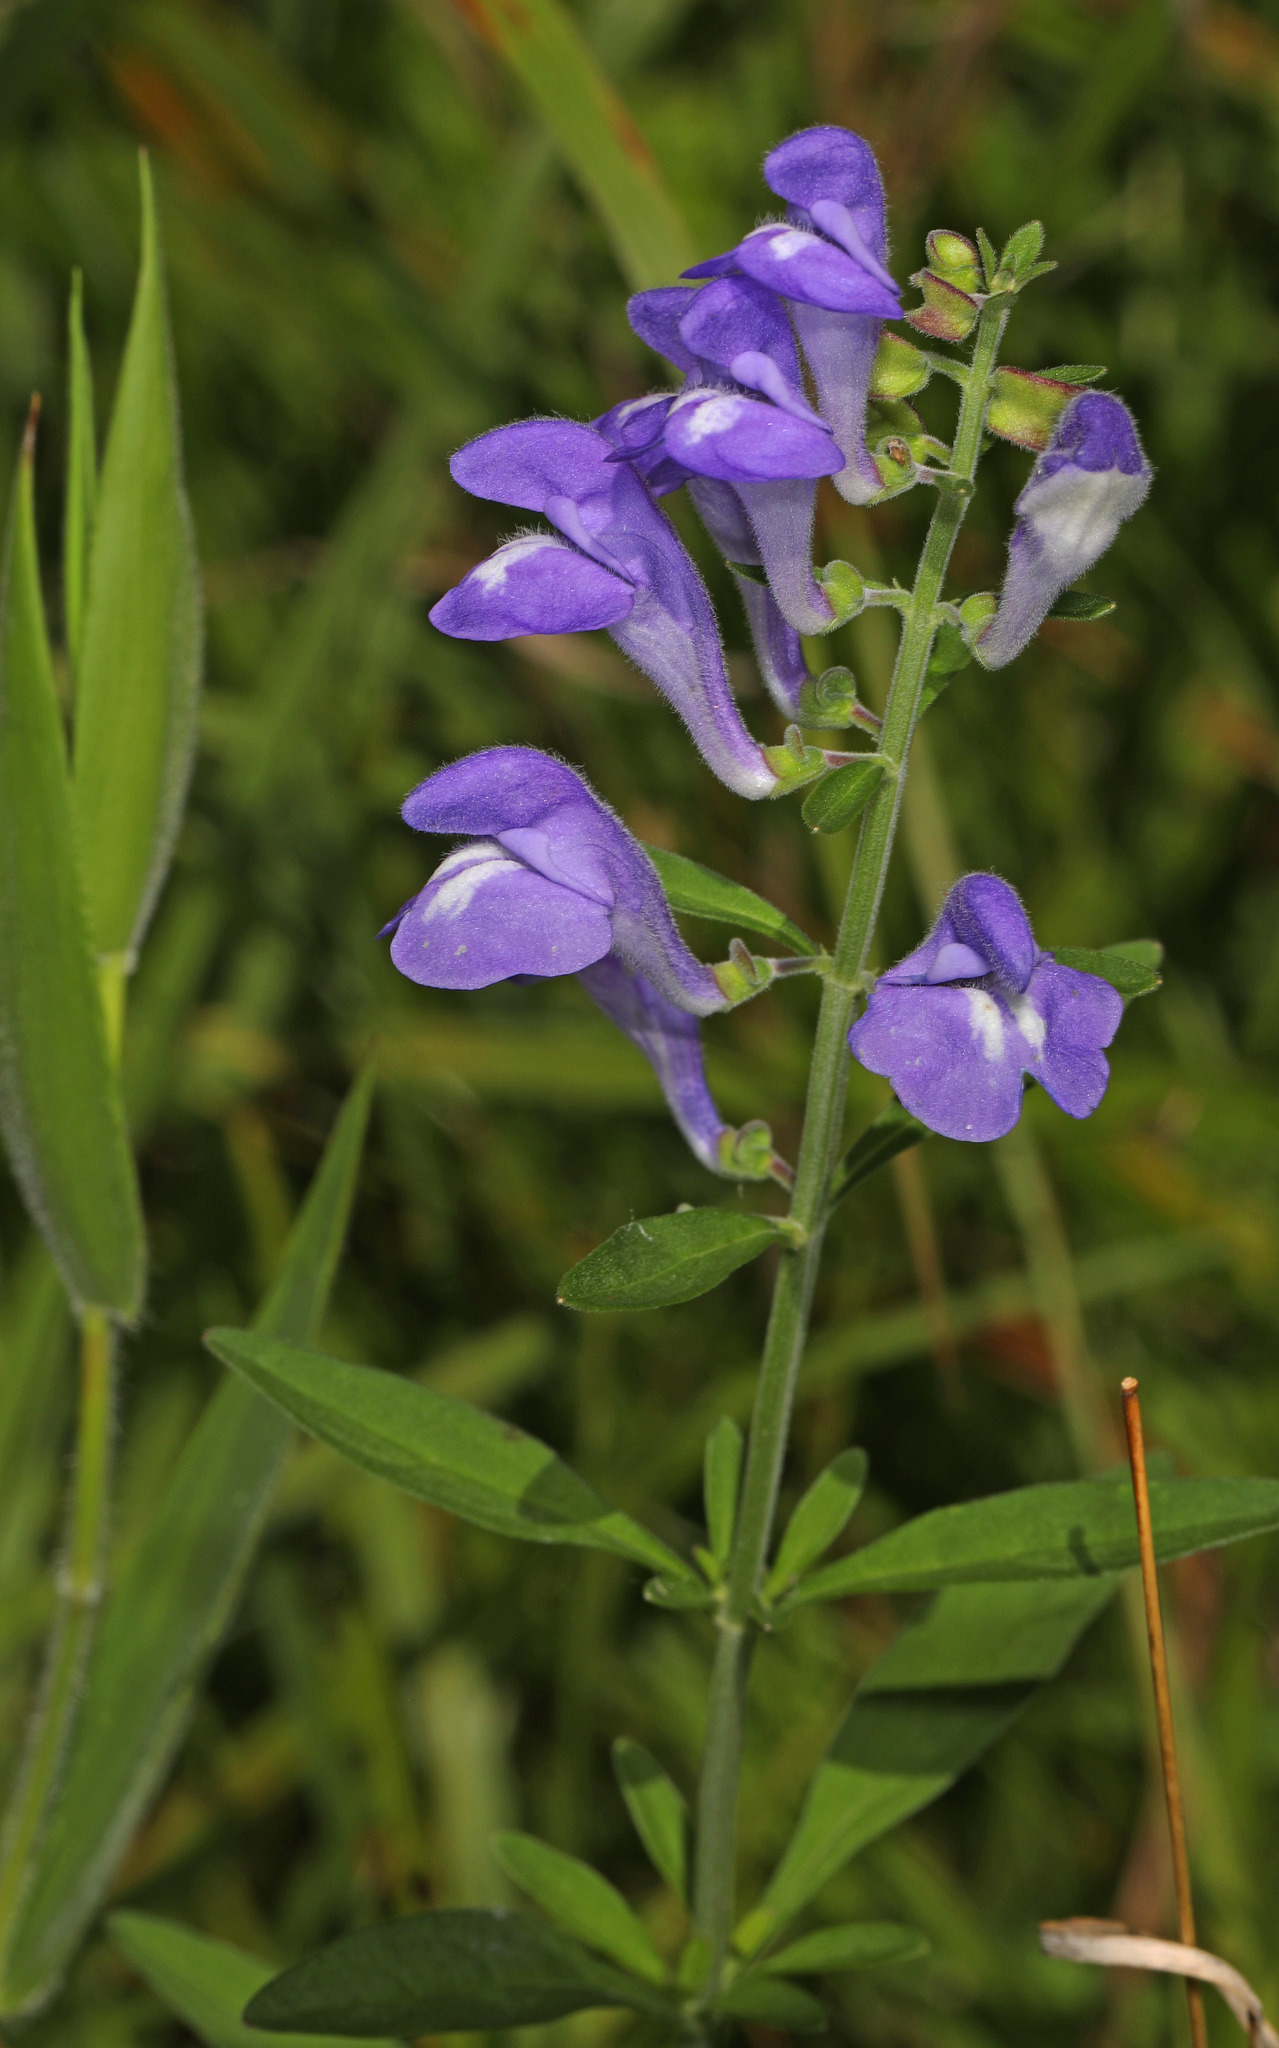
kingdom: Plantae
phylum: Tracheophyta
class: Magnoliopsida
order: Lamiales
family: Lamiaceae
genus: Scutellaria
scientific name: Scutellaria integrifolia
